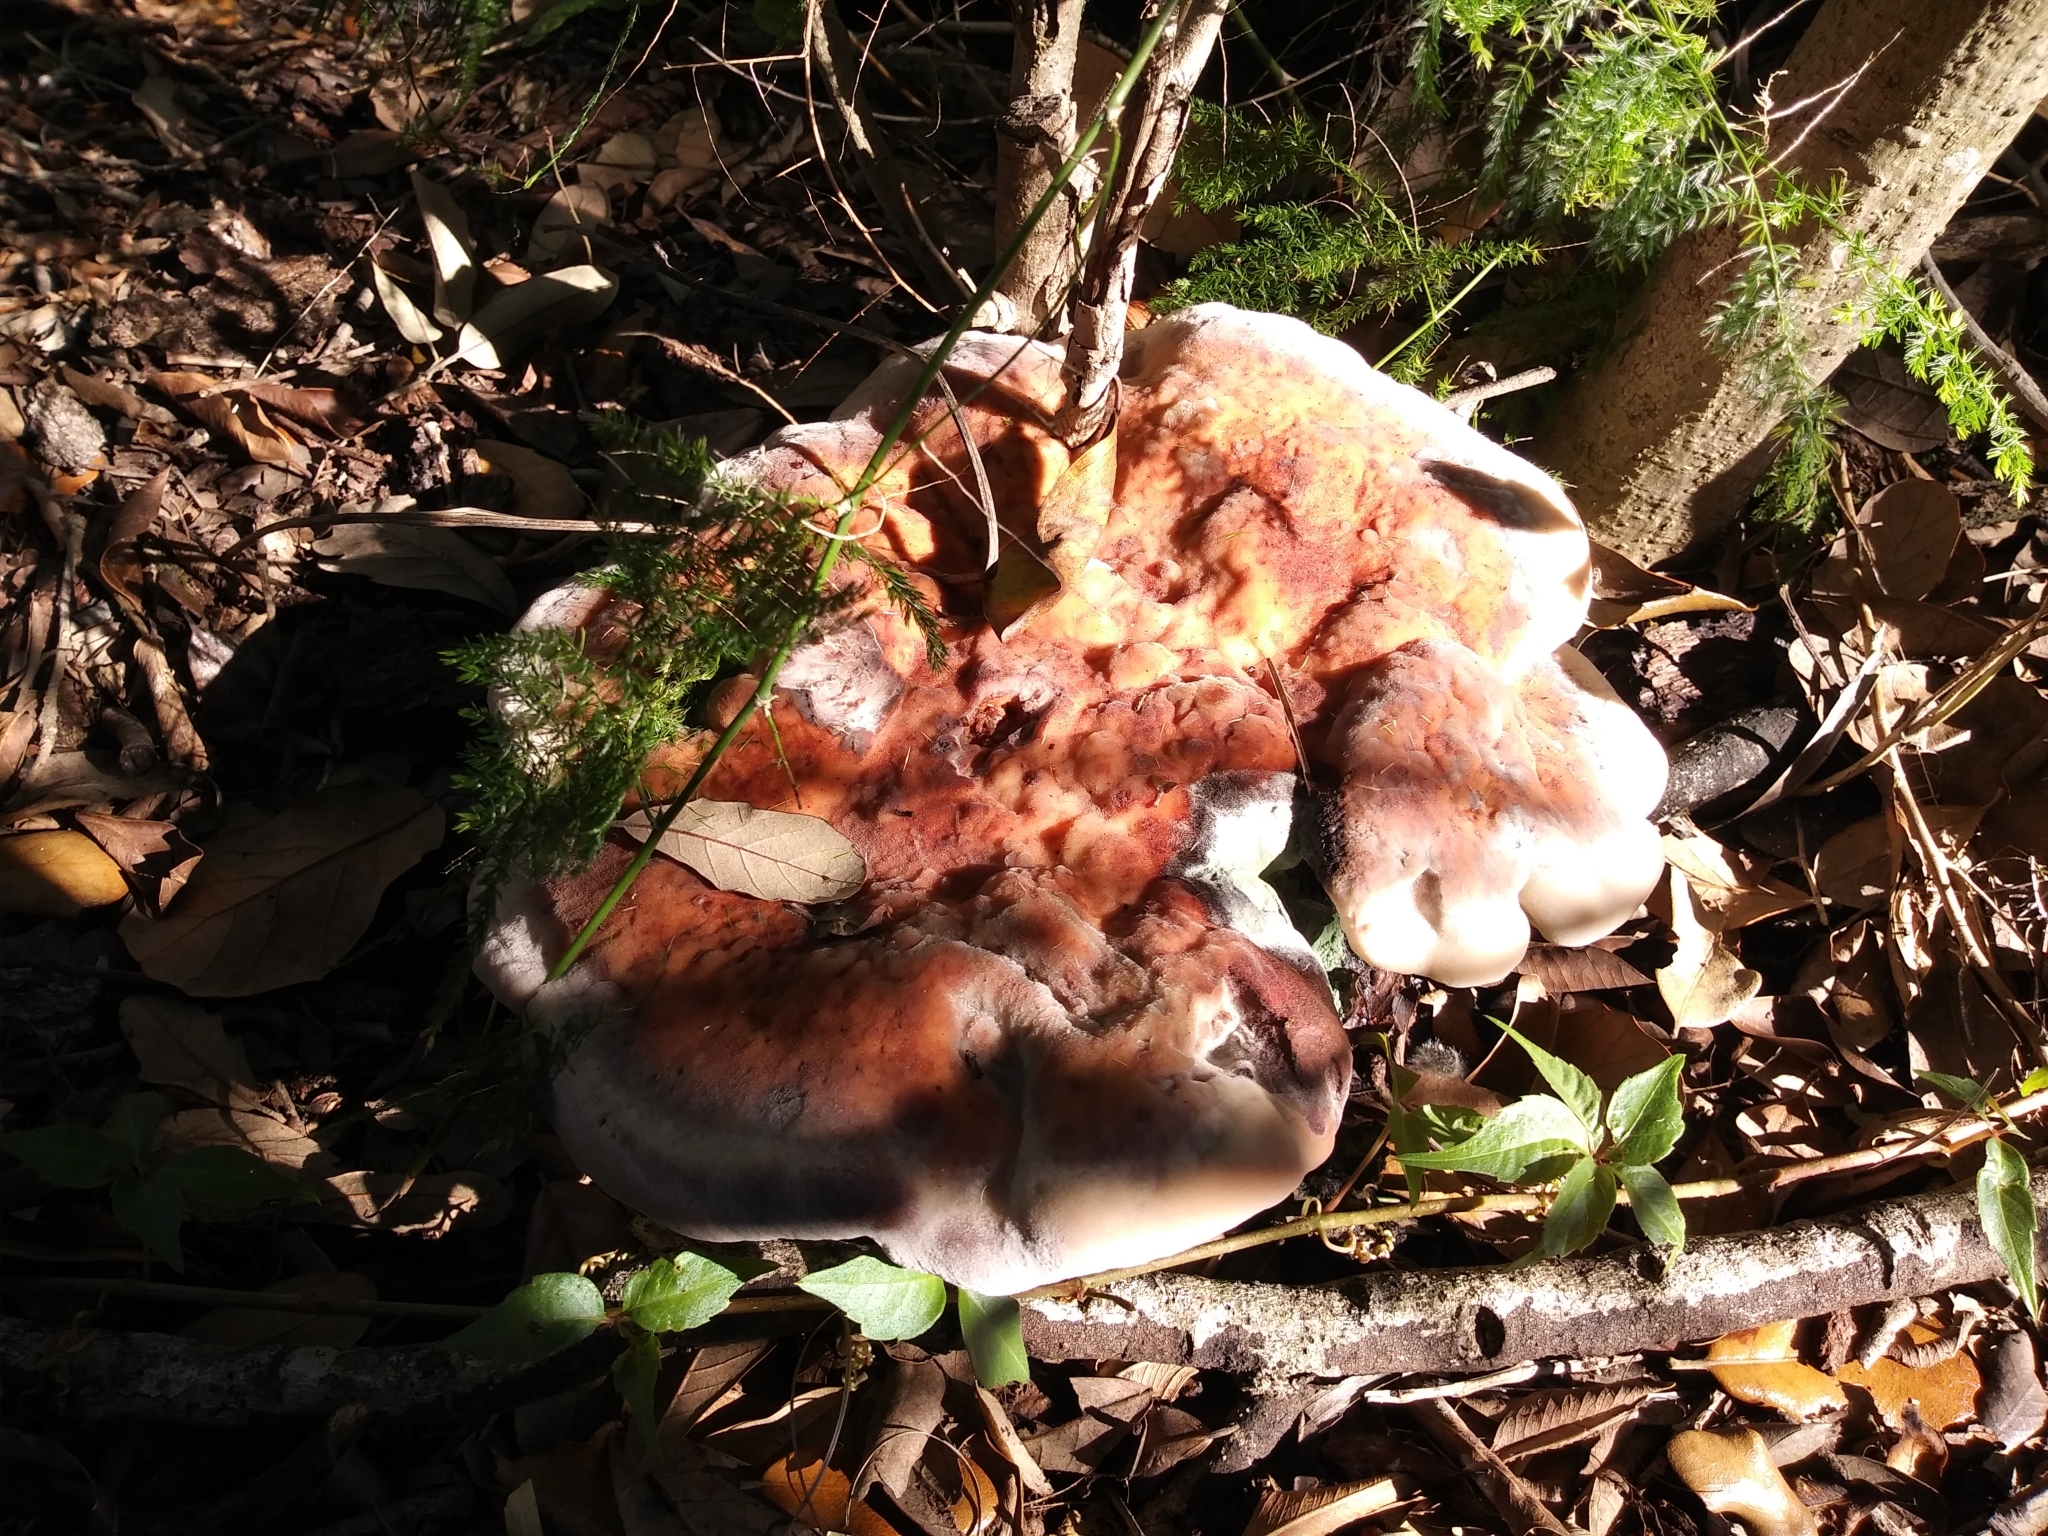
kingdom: Fungi
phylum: Basidiomycota
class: Agaricomycetes
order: Polyporales
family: Laetiporaceae
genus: Berkcurtia
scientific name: Berkcurtia persicina
